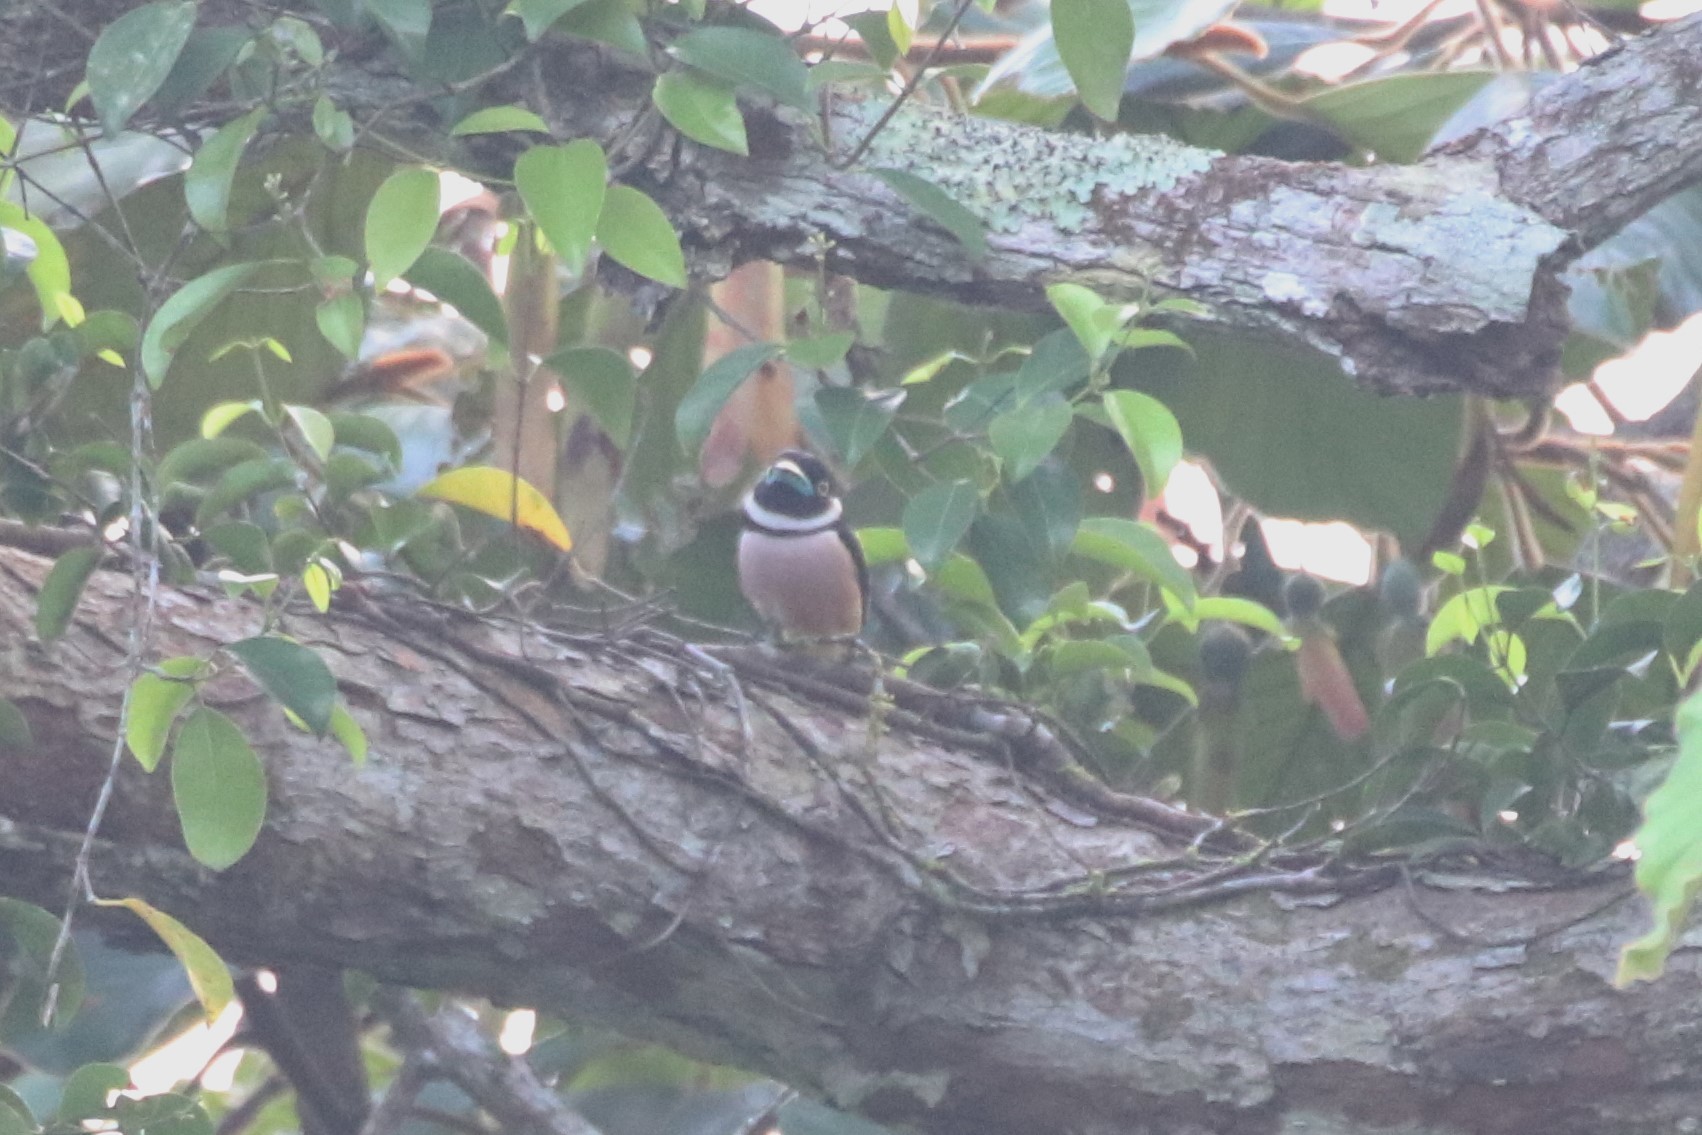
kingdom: Animalia
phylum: Chordata
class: Aves
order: Passeriformes
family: Eurylaimidae
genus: Eurylaimus
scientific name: Eurylaimus ochromalus
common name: Black-and-yellow broadbill
